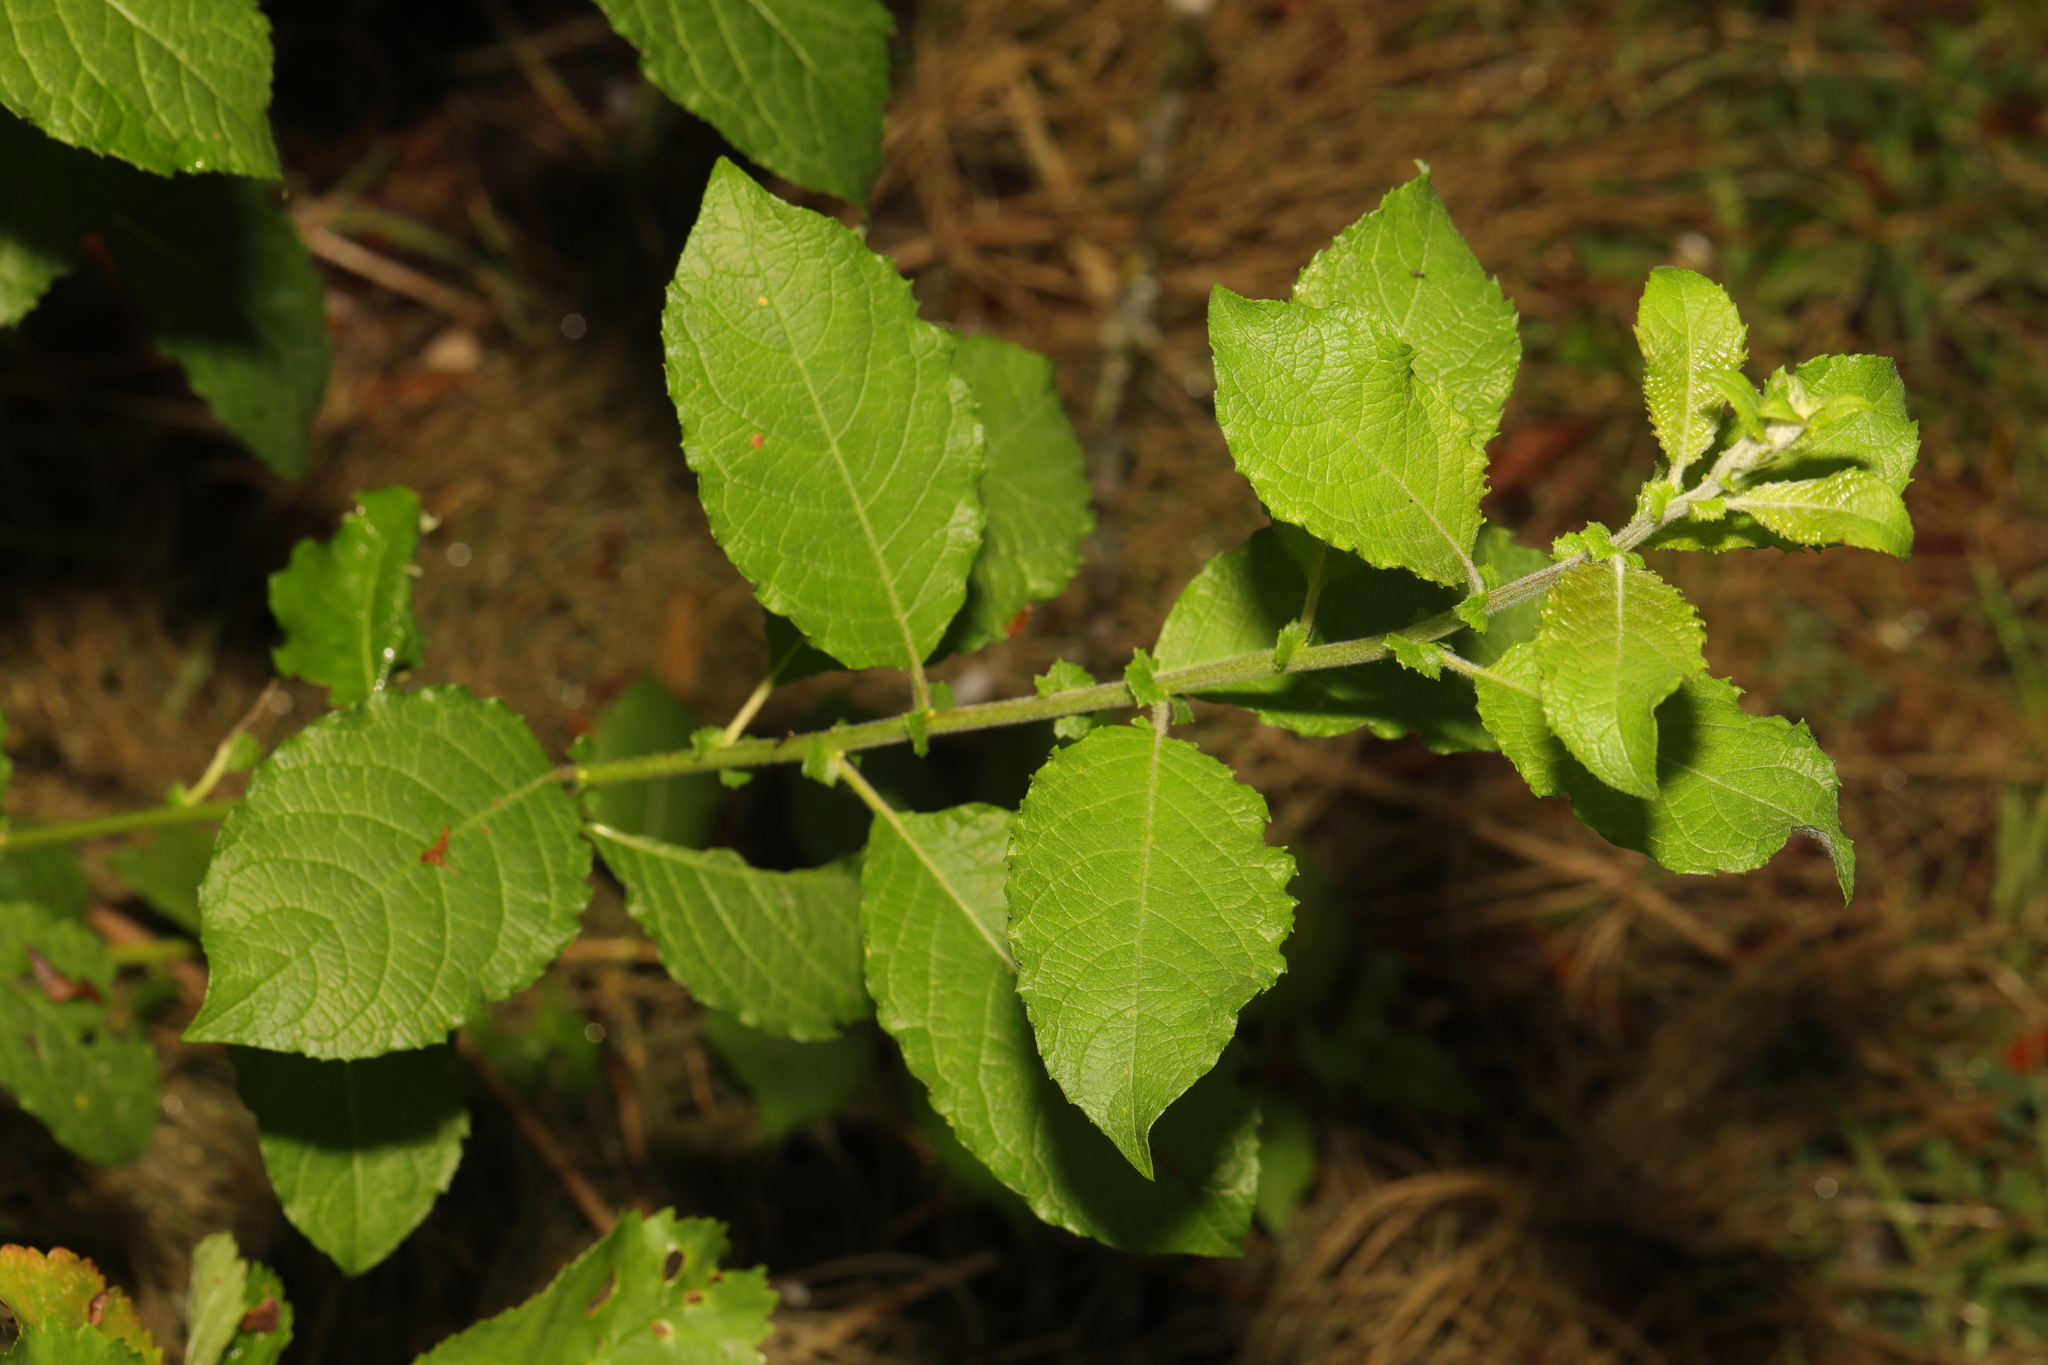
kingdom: Plantae
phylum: Tracheophyta
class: Magnoliopsida
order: Malpighiales
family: Salicaceae
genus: Salix
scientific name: Salix caprea
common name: Goat willow
